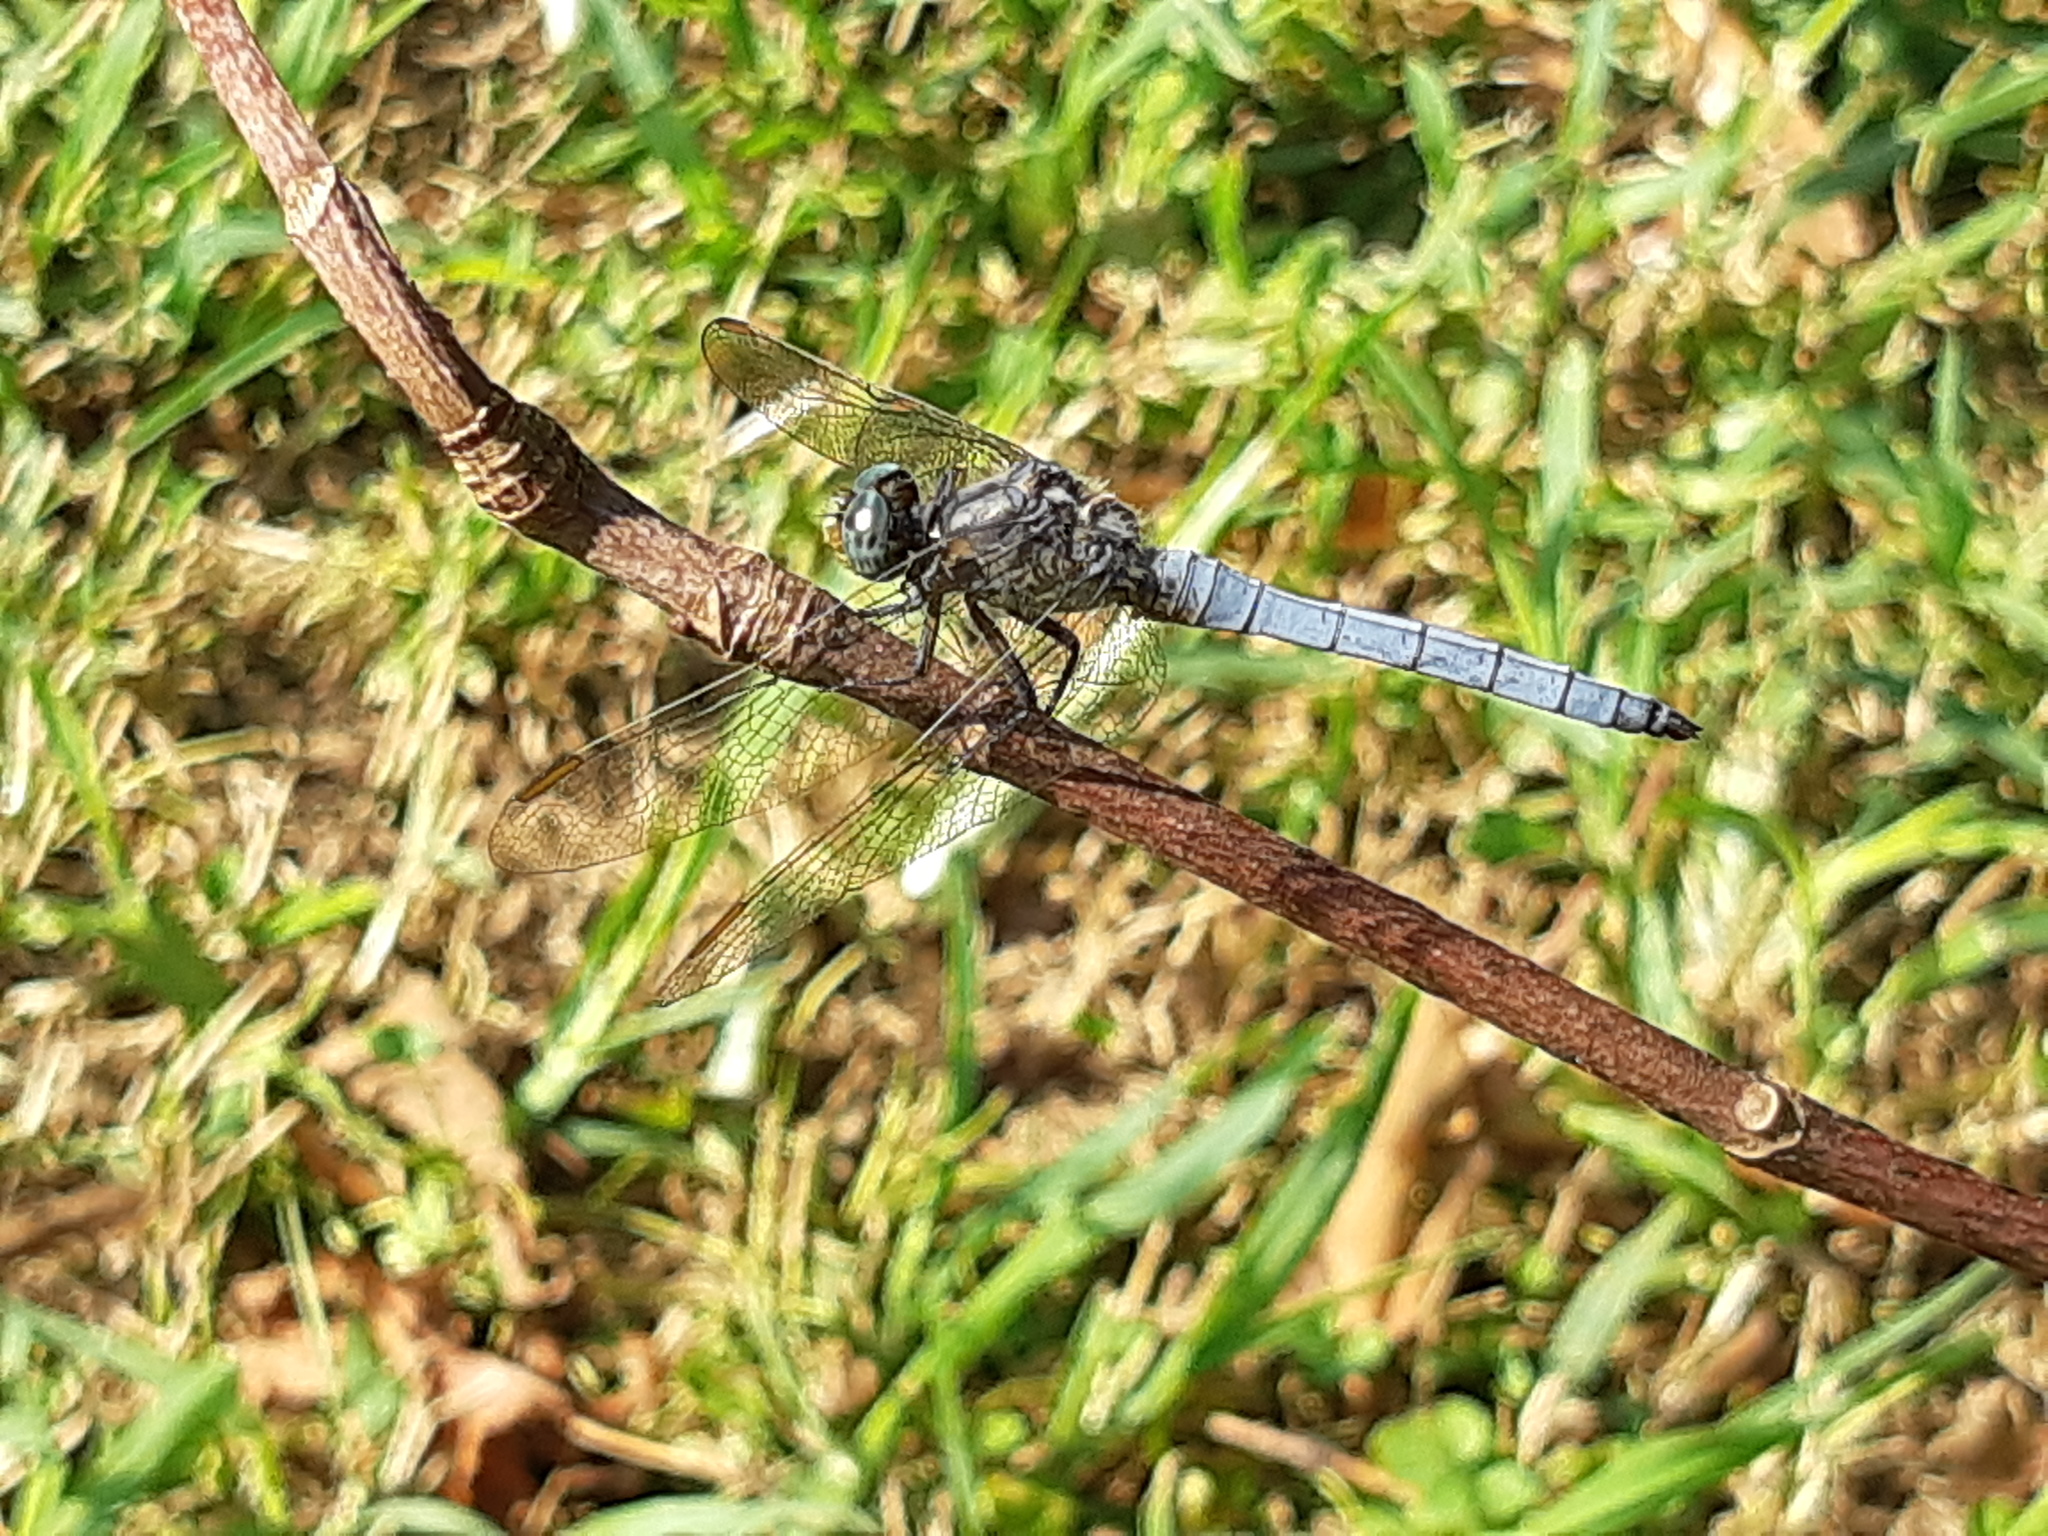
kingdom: Animalia
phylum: Arthropoda
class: Insecta
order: Odonata
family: Libellulidae
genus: Orthetrum
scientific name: Orthetrum coerulescens
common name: Keeled skimmer
